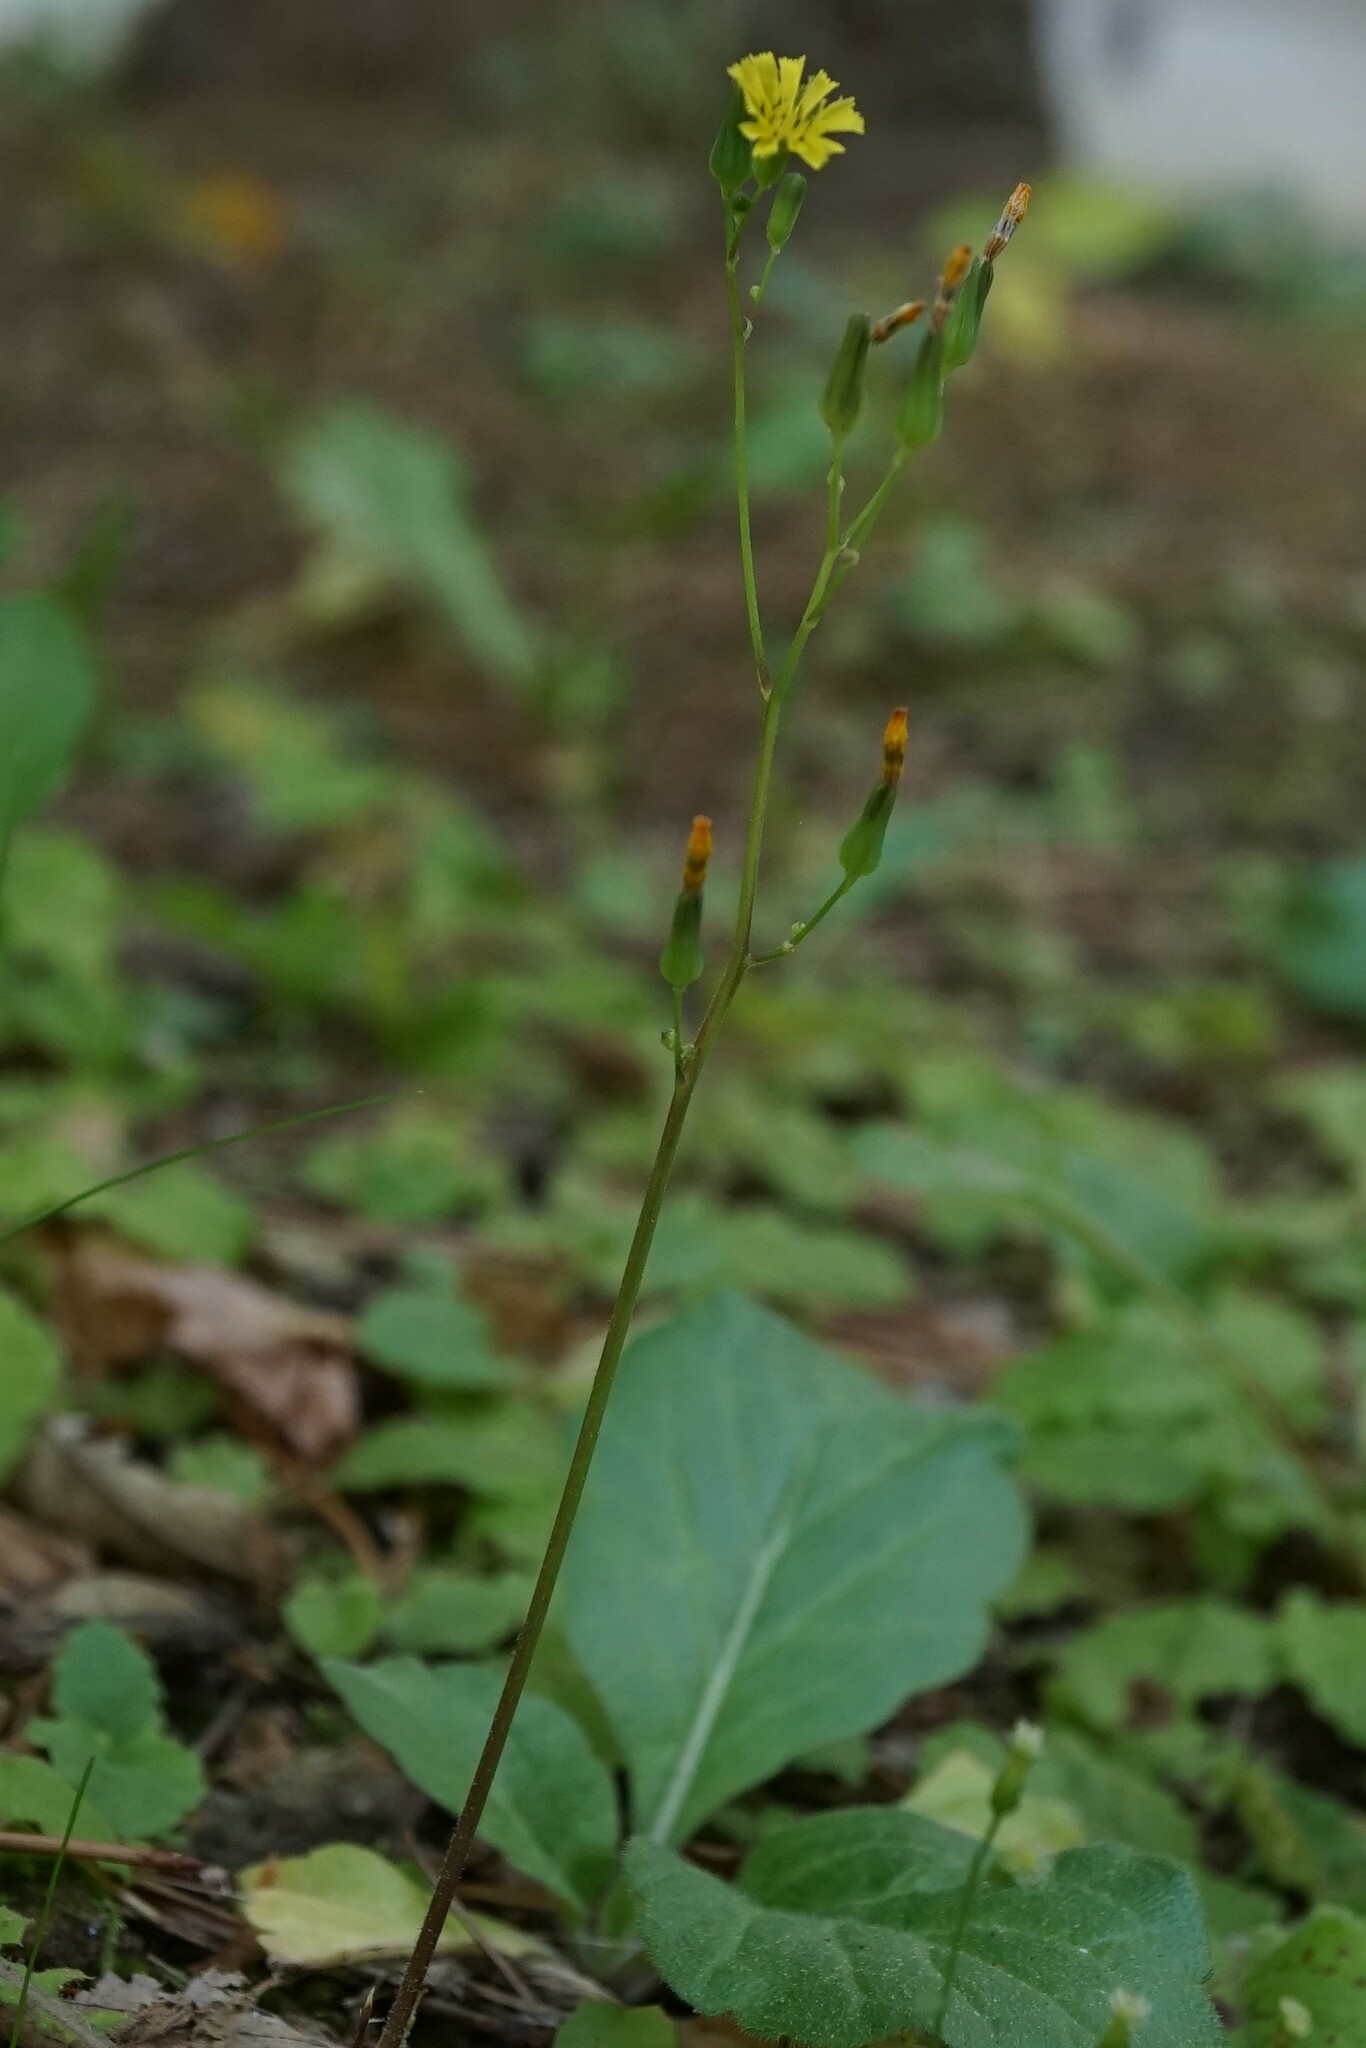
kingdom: Plantae
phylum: Tracheophyta
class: Magnoliopsida
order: Asterales
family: Asteraceae
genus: Youngia
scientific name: Youngia japonica
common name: Oriental false hawksbeard
